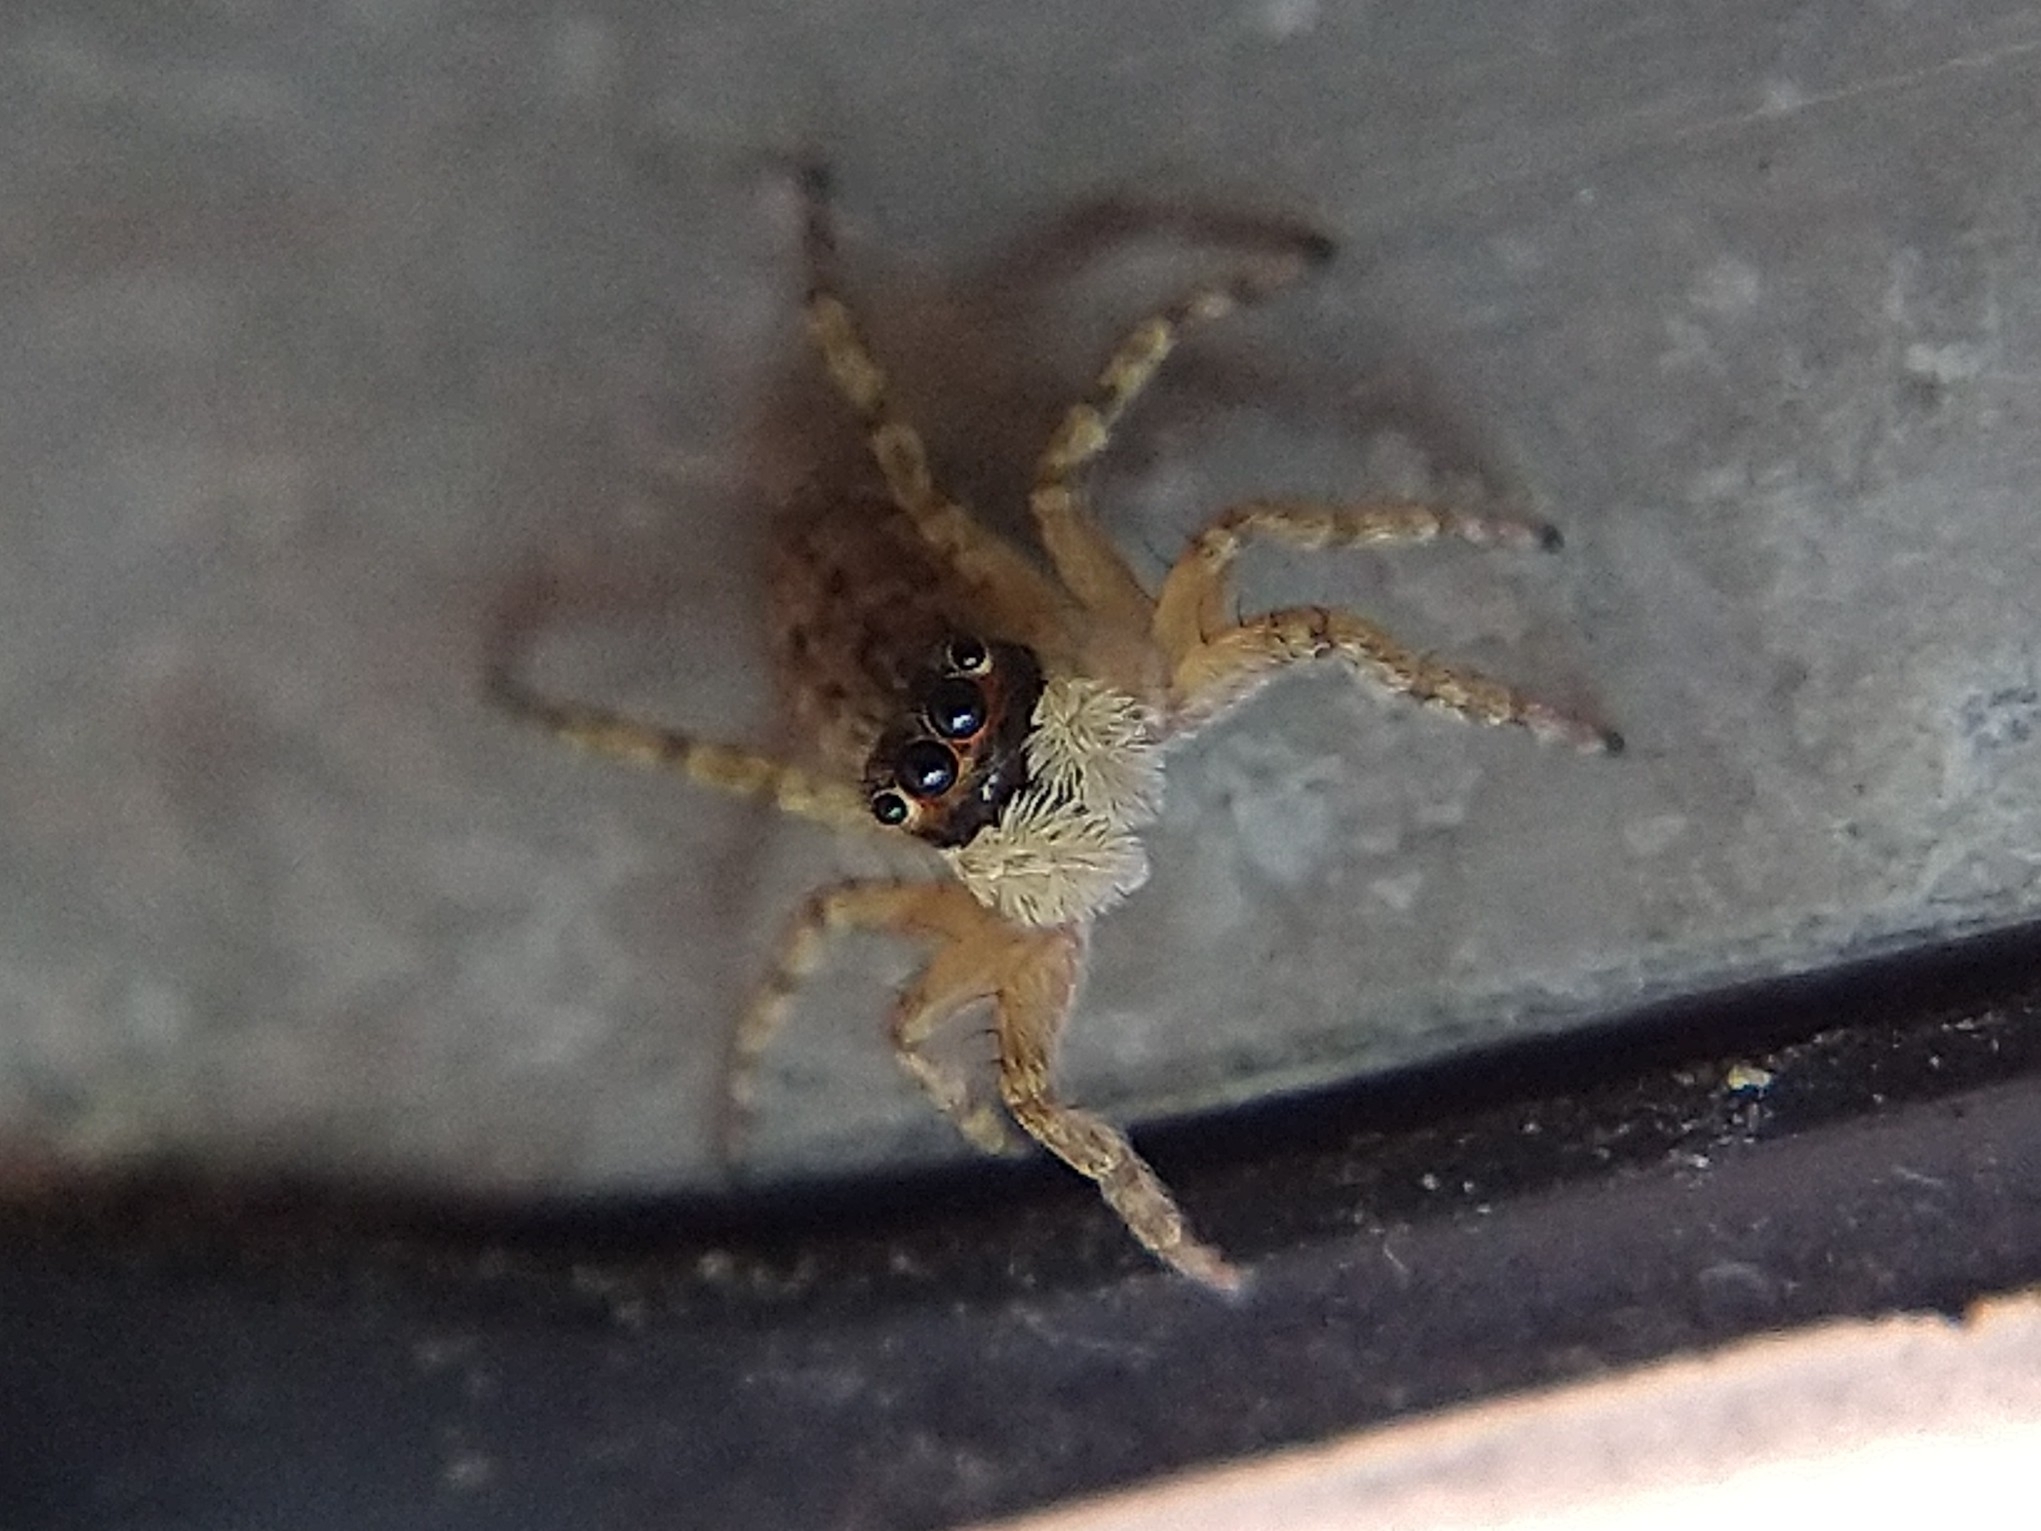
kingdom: Animalia
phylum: Arthropoda
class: Arachnida
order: Araneae
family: Salticidae
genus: Menemerus
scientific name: Menemerus semilimbatus
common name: Jumping spider
